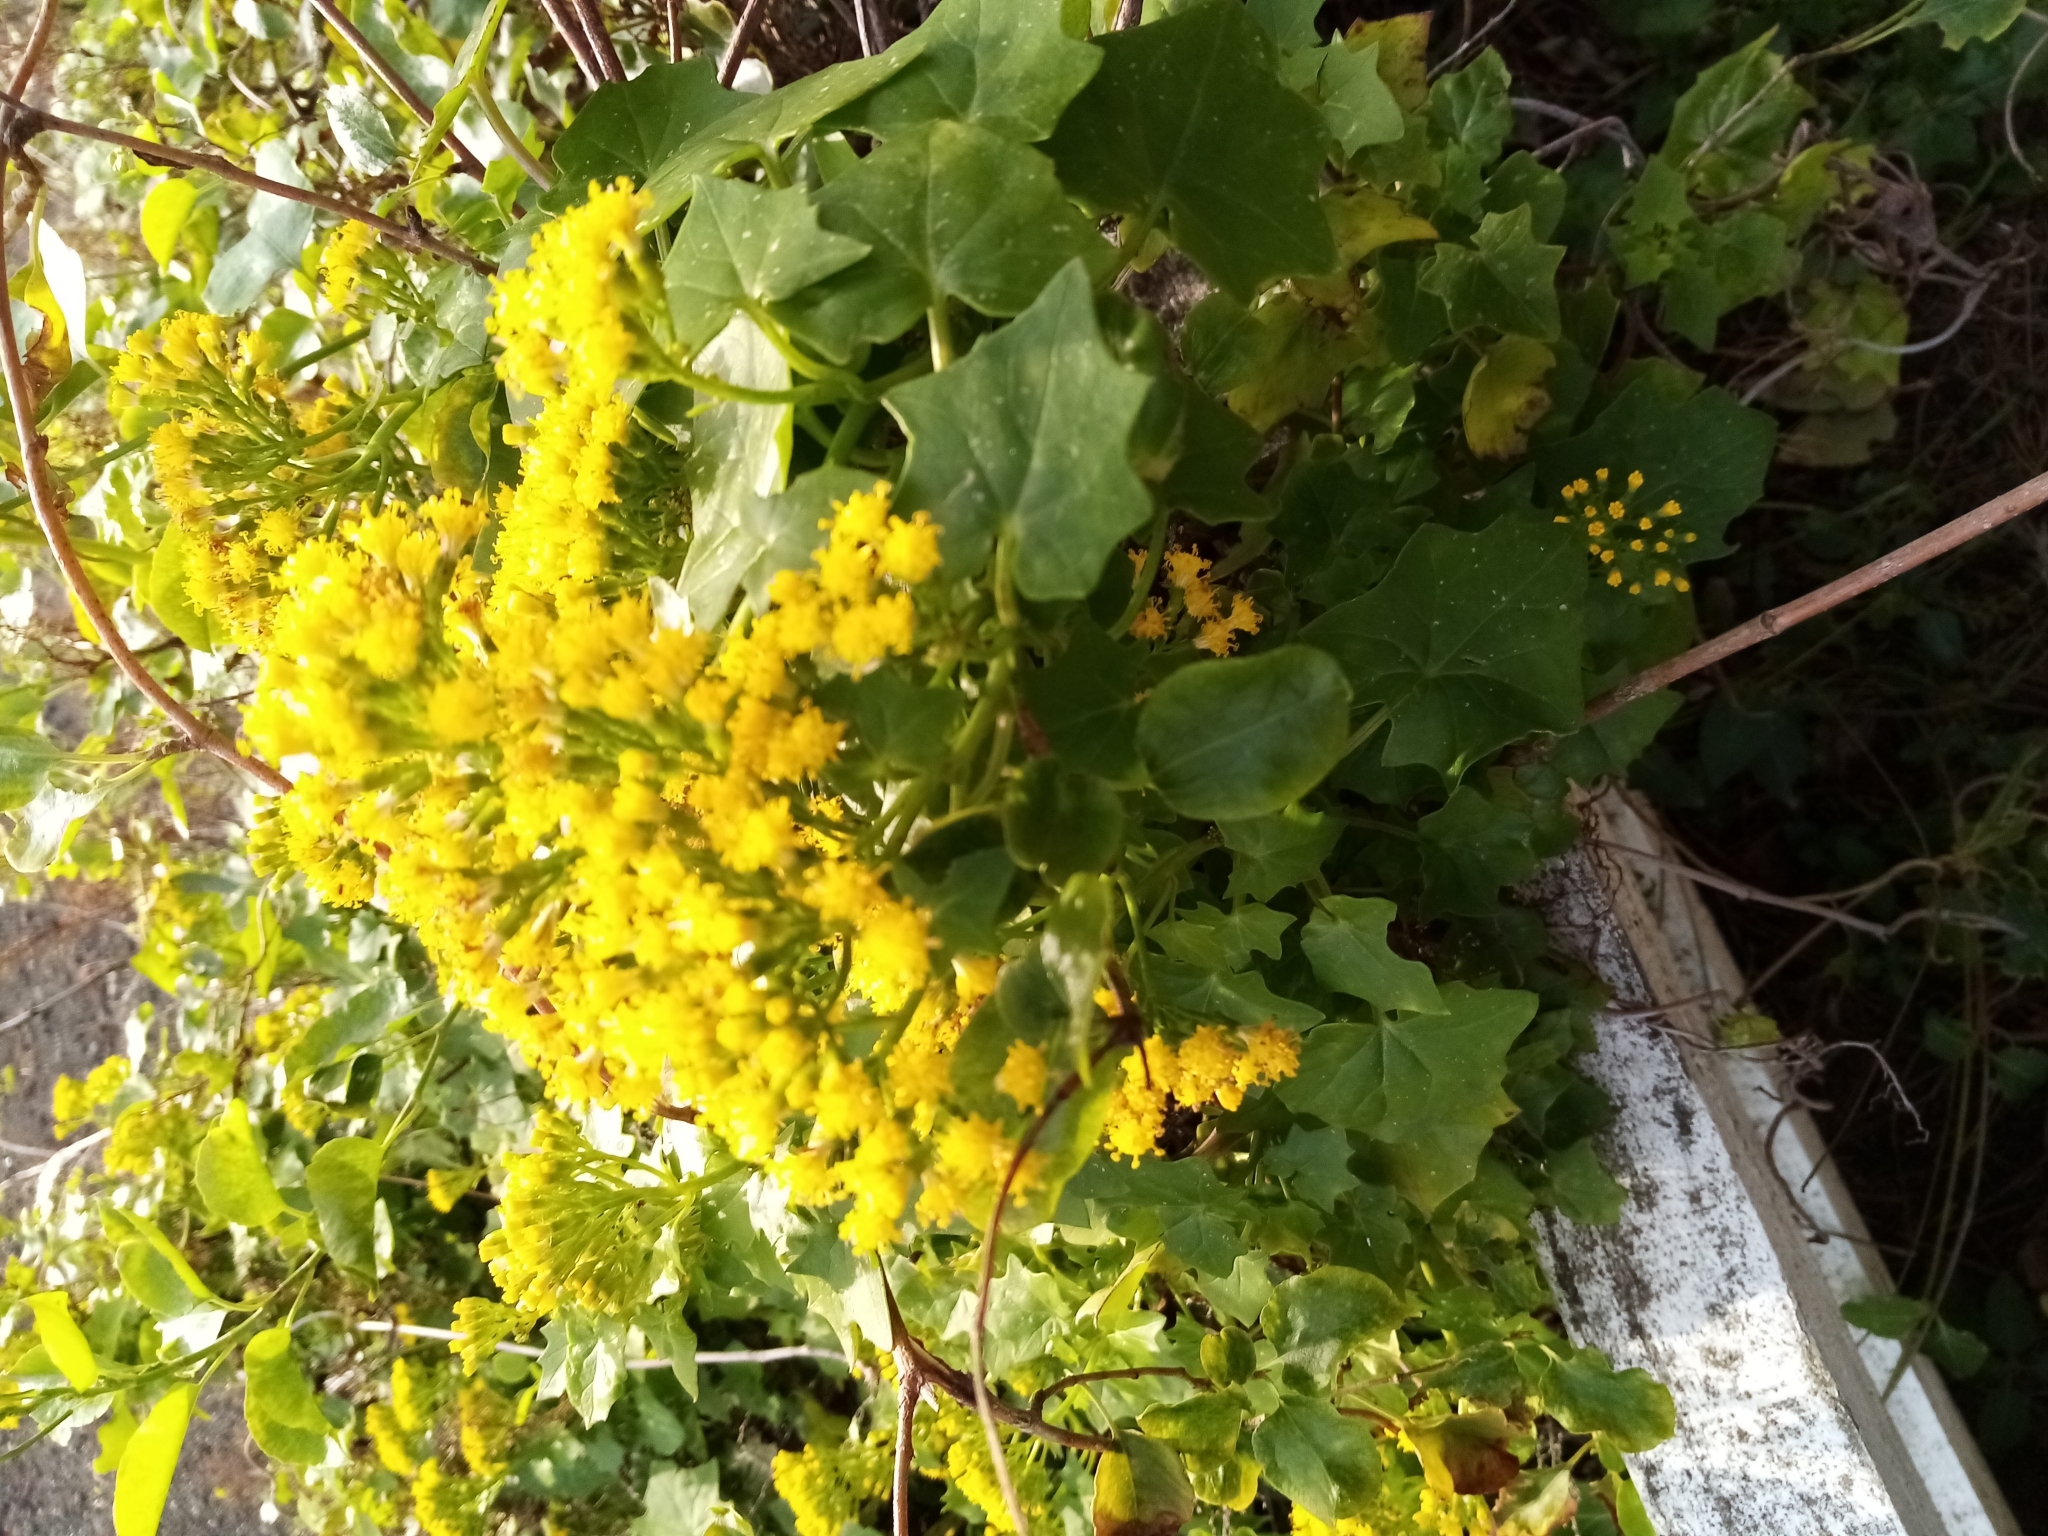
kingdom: Plantae
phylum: Tracheophyta
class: Magnoliopsida
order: Asterales
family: Asteraceae
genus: Delairea
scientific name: Delairea odorata
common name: Cape-ivy
